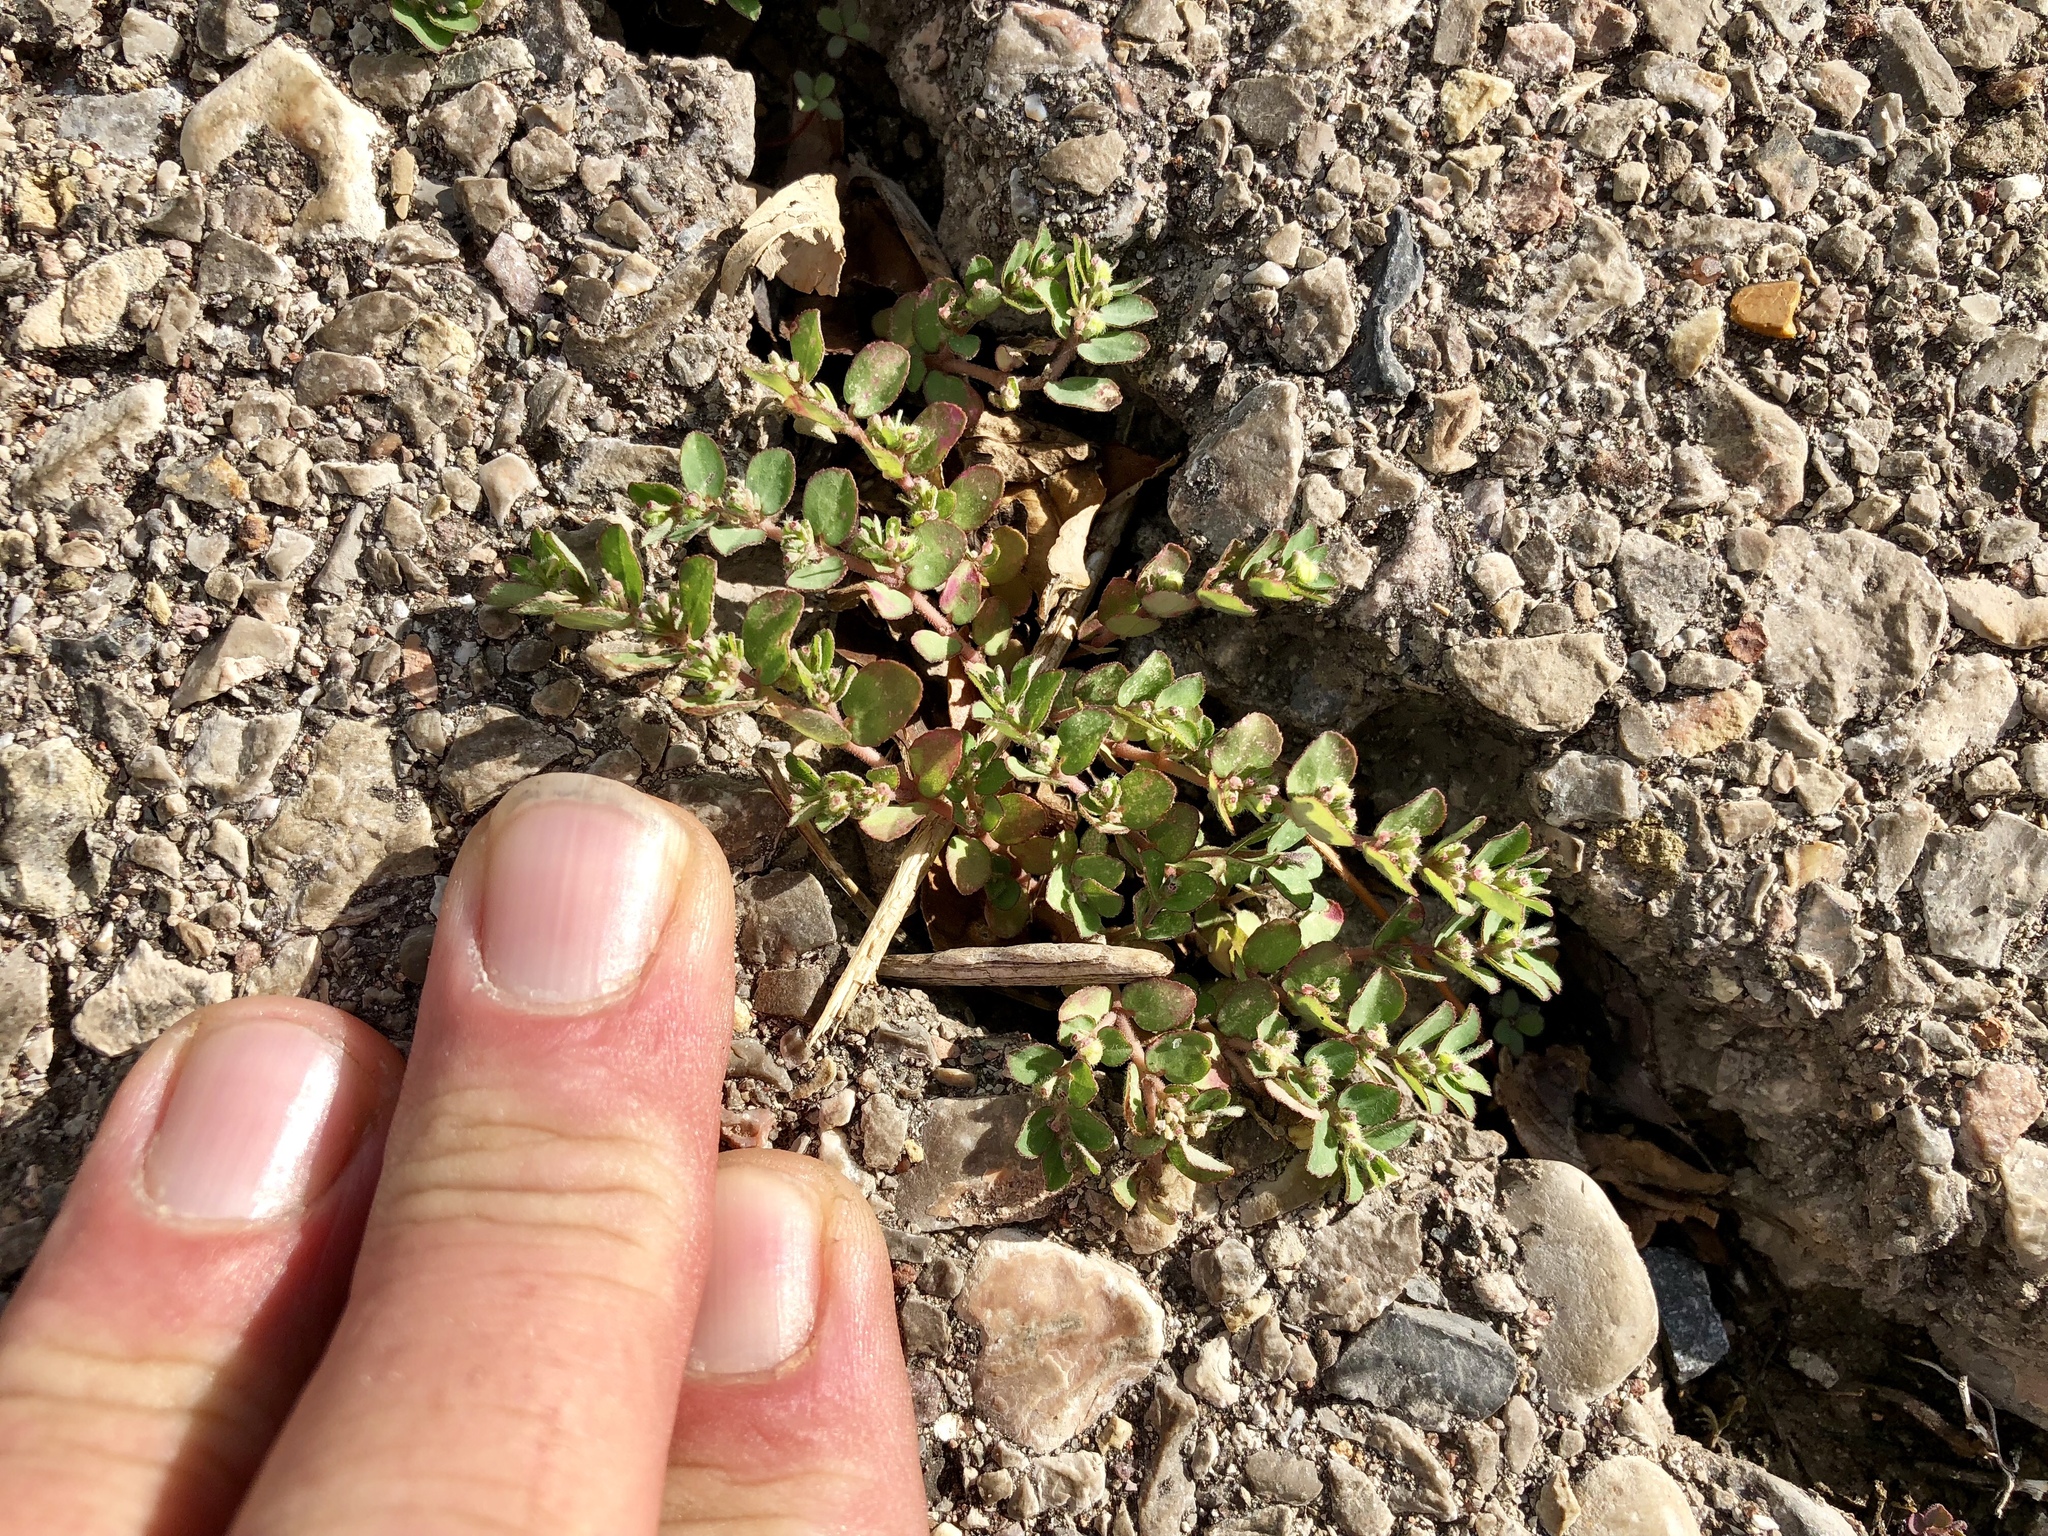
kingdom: Plantae
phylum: Tracheophyta
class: Magnoliopsida
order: Malpighiales
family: Euphorbiaceae
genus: Euphorbia
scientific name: Euphorbia prostrata
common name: Prostrate sandmat
